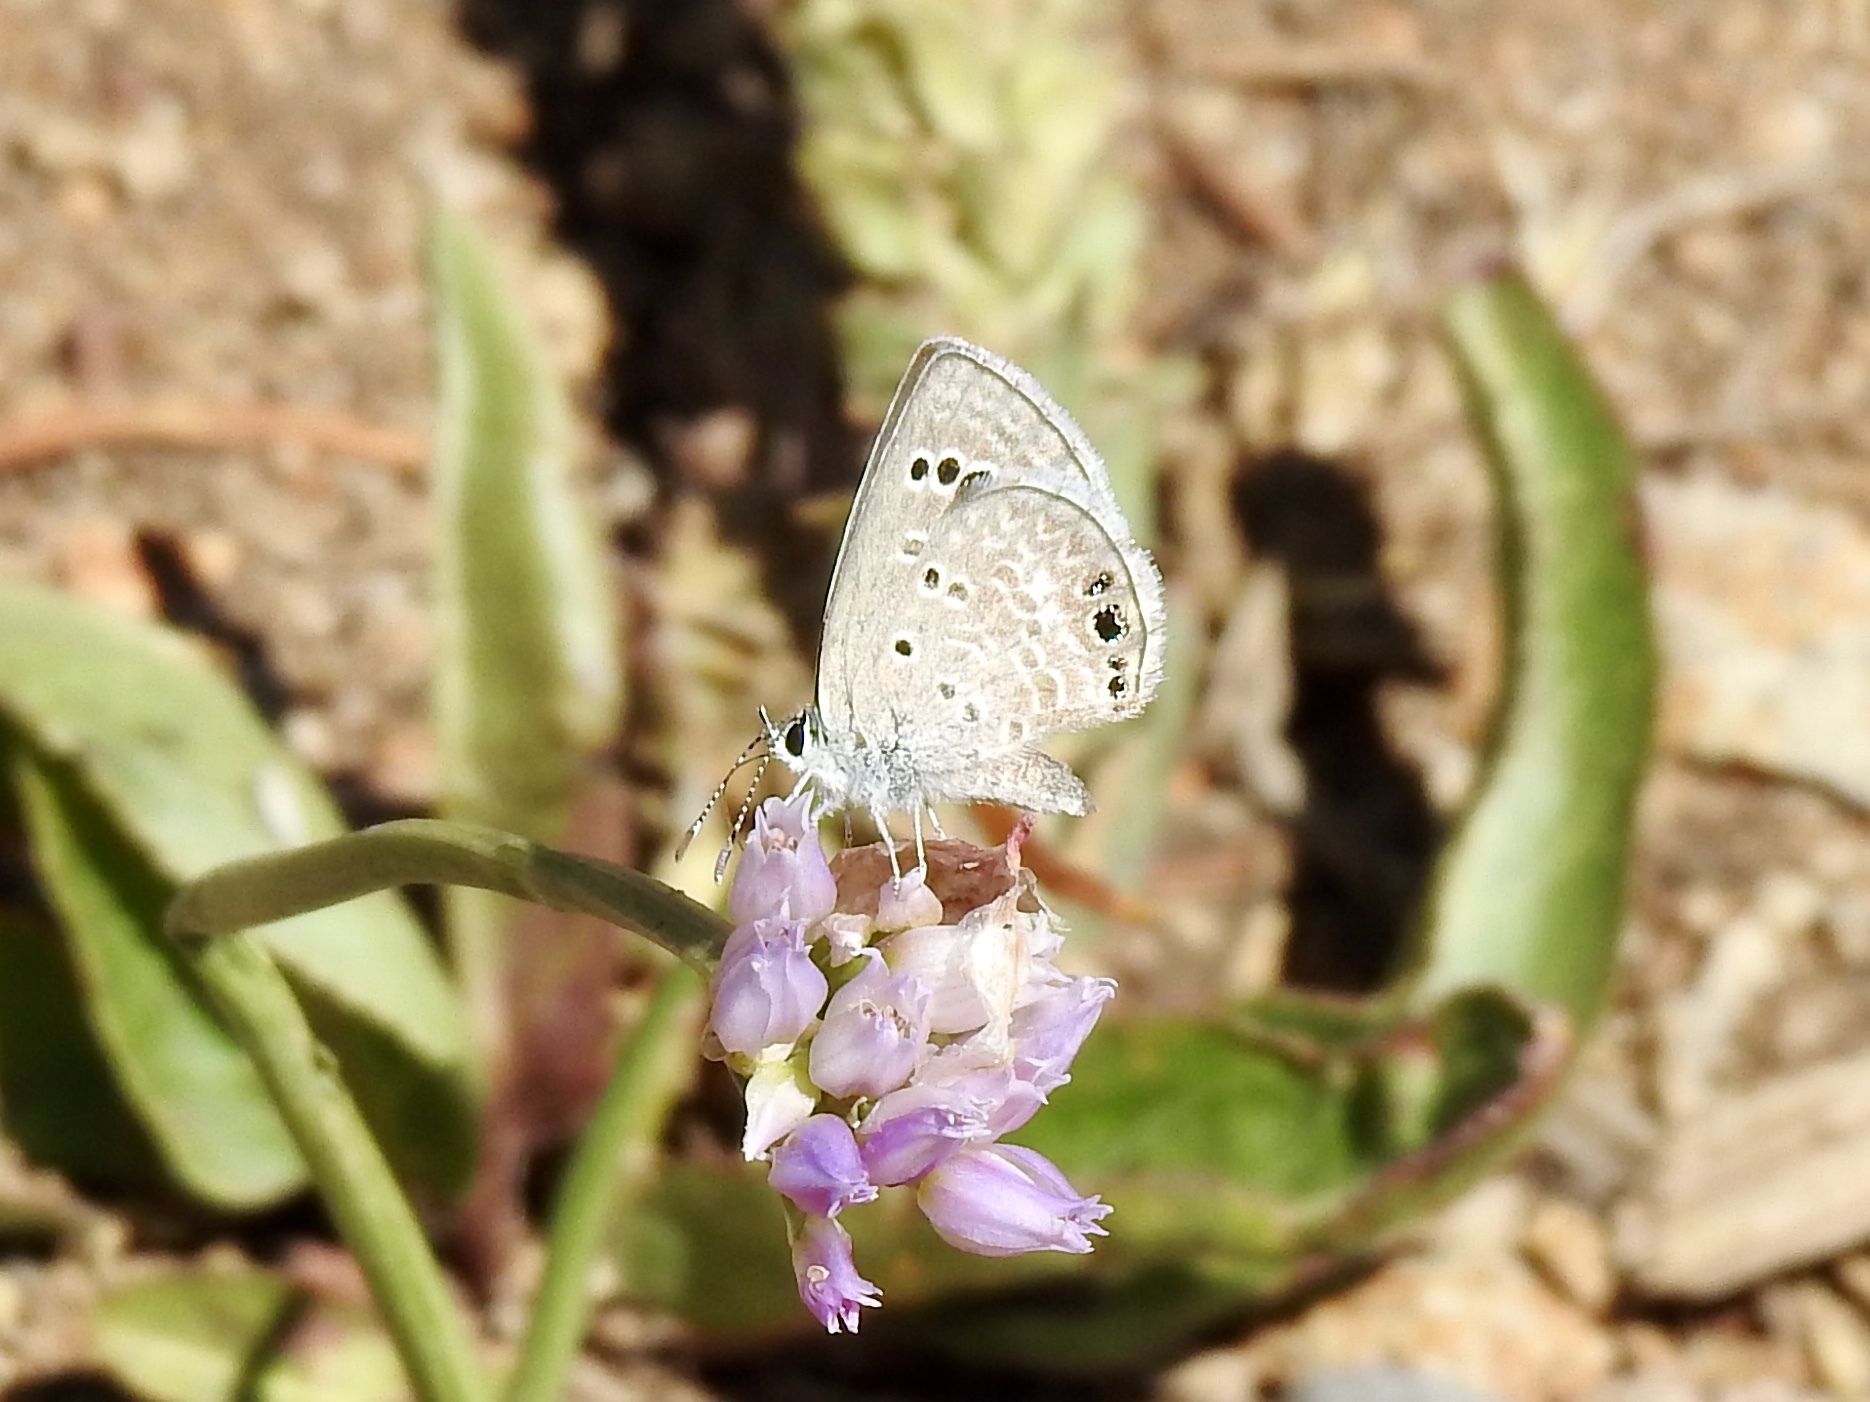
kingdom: Animalia
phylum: Arthropoda
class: Insecta
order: Lepidoptera
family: Lycaenidae
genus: Echinargus
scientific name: Echinargus isola
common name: Reakirt's blue
